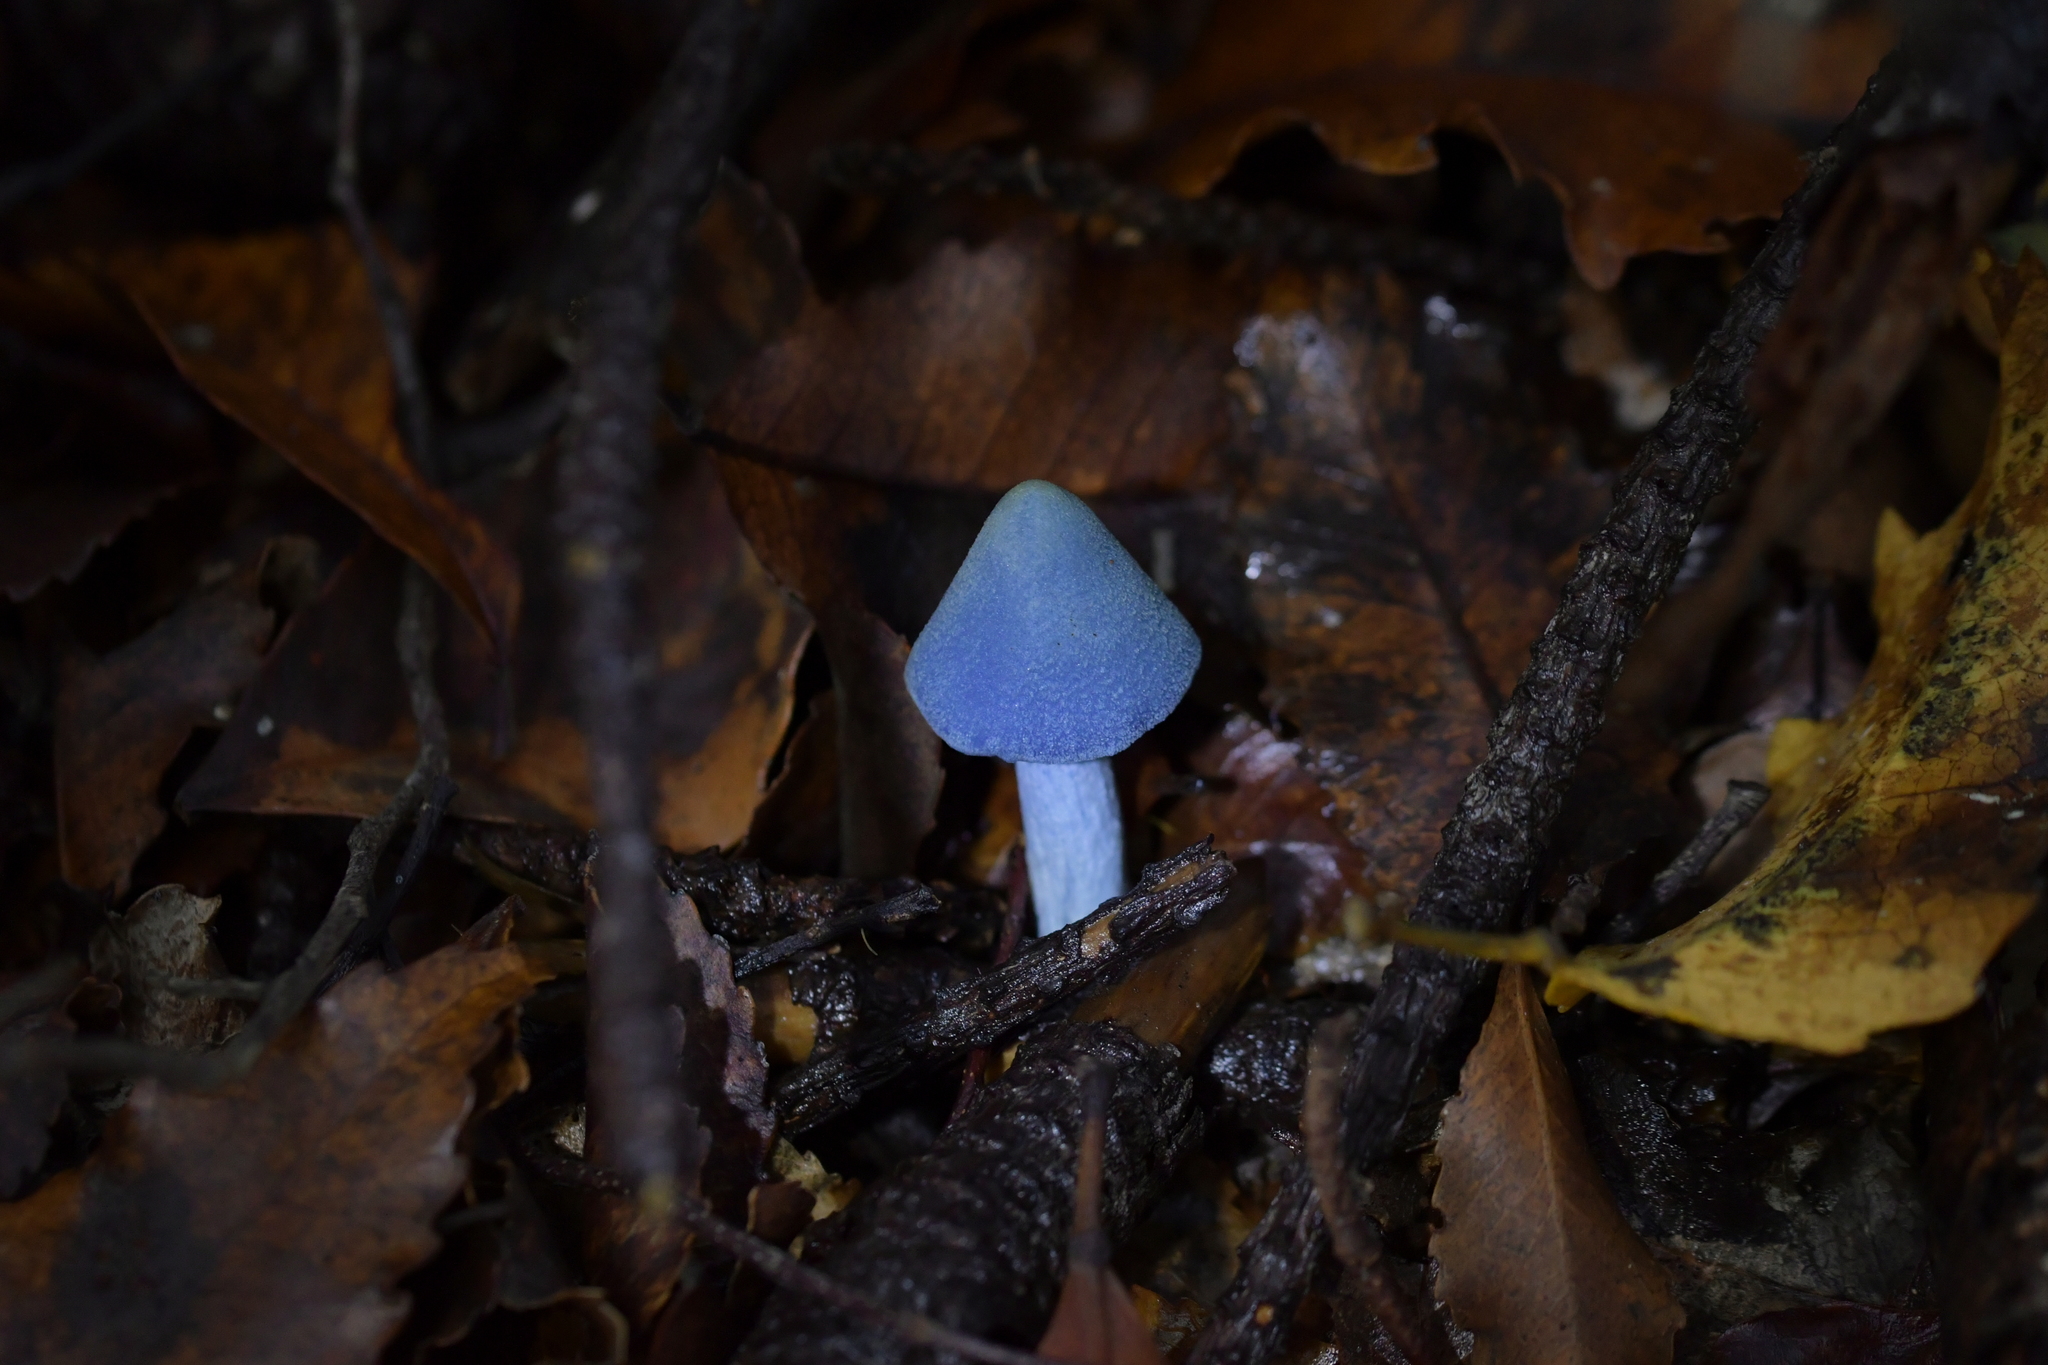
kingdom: Fungi
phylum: Basidiomycota
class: Agaricomycetes
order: Agaricales
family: Entolomataceae
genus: Entoloma
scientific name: Entoloma hochstetteri
